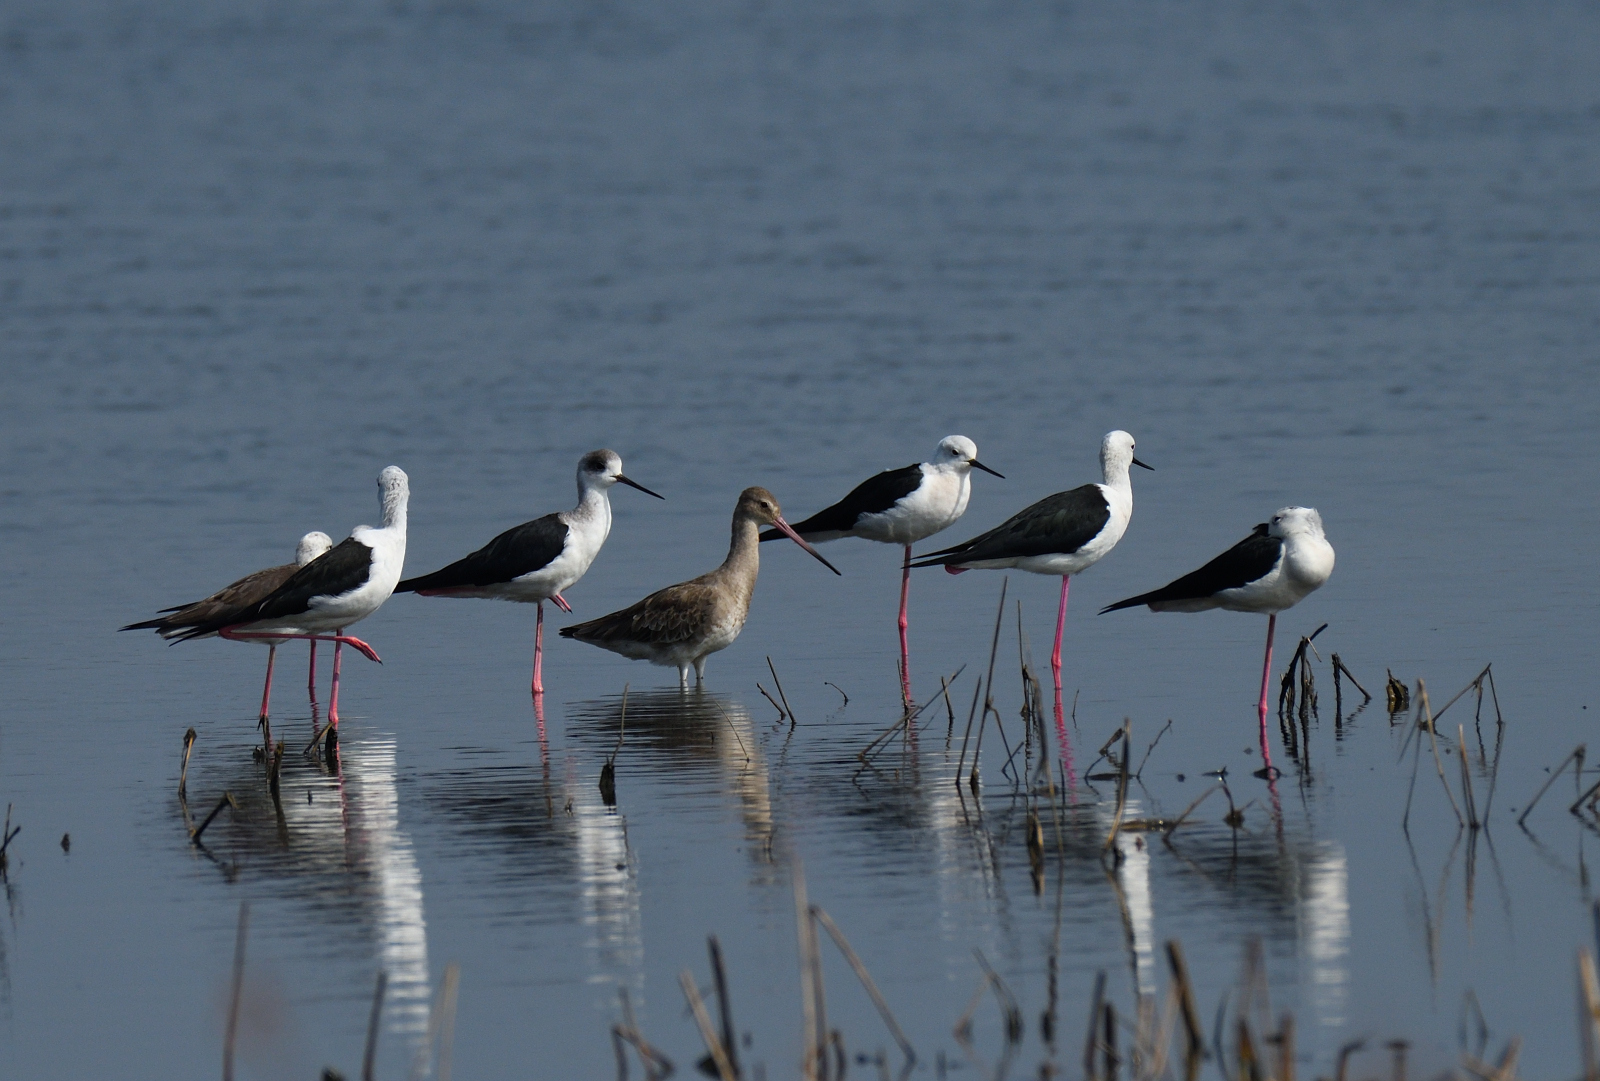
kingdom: Animalia
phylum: Chordata
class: Aves
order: Charadriiformes
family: Recurvirostridae
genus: Himantopus
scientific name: Himantopus himantopus
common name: Black-winged stilt
